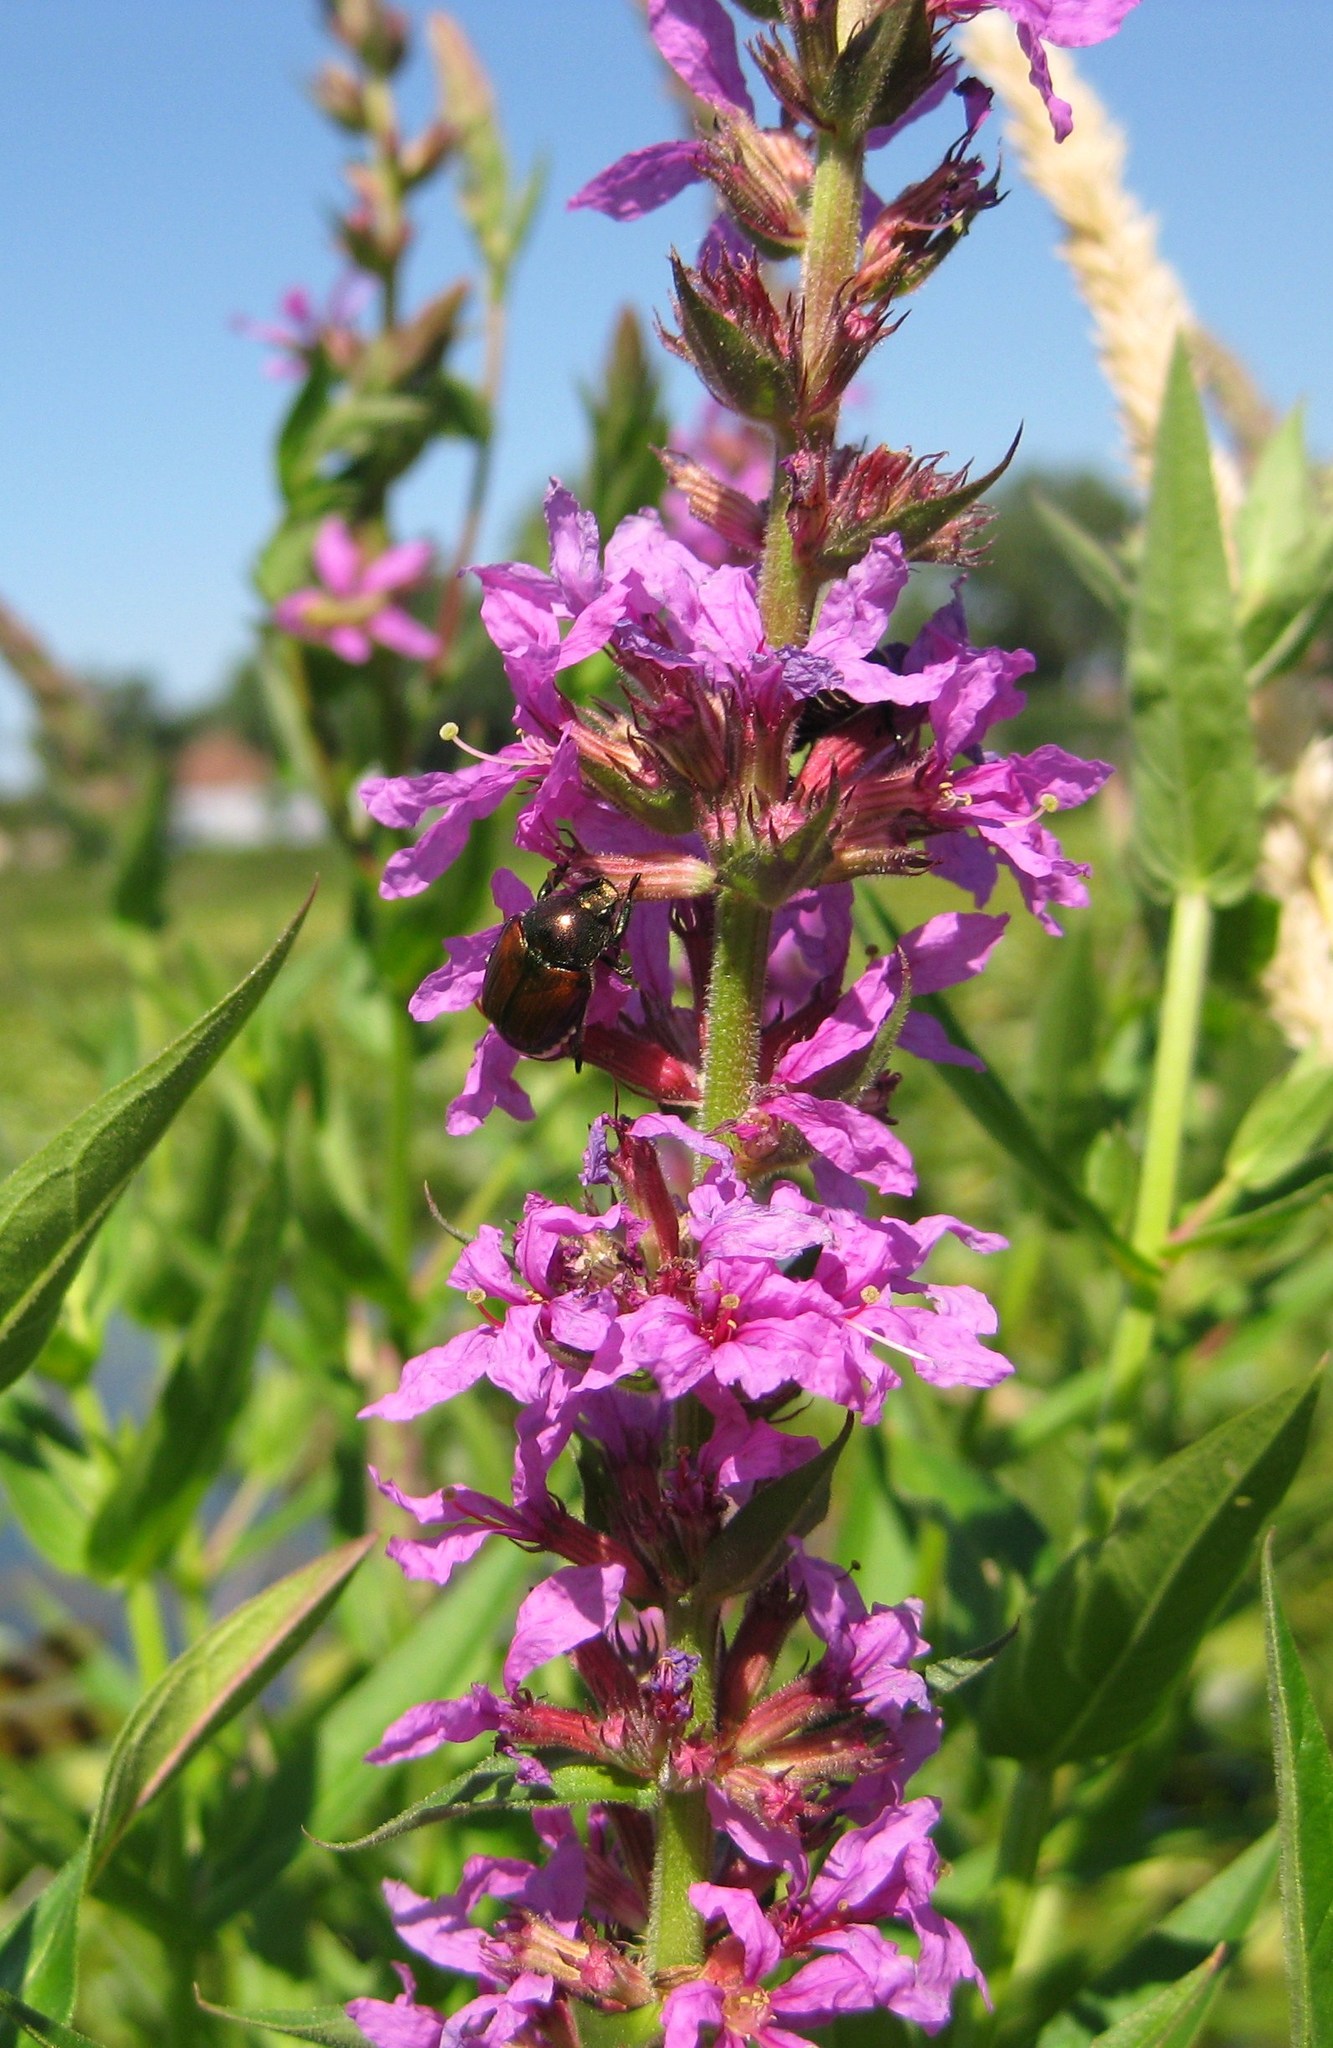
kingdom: Plantae
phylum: Tracheophyta
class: Magnoliopsida
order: Myrtales
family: Lythraceae
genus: Lythrum
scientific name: Lythrum salicaria
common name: Purple loosestrife
